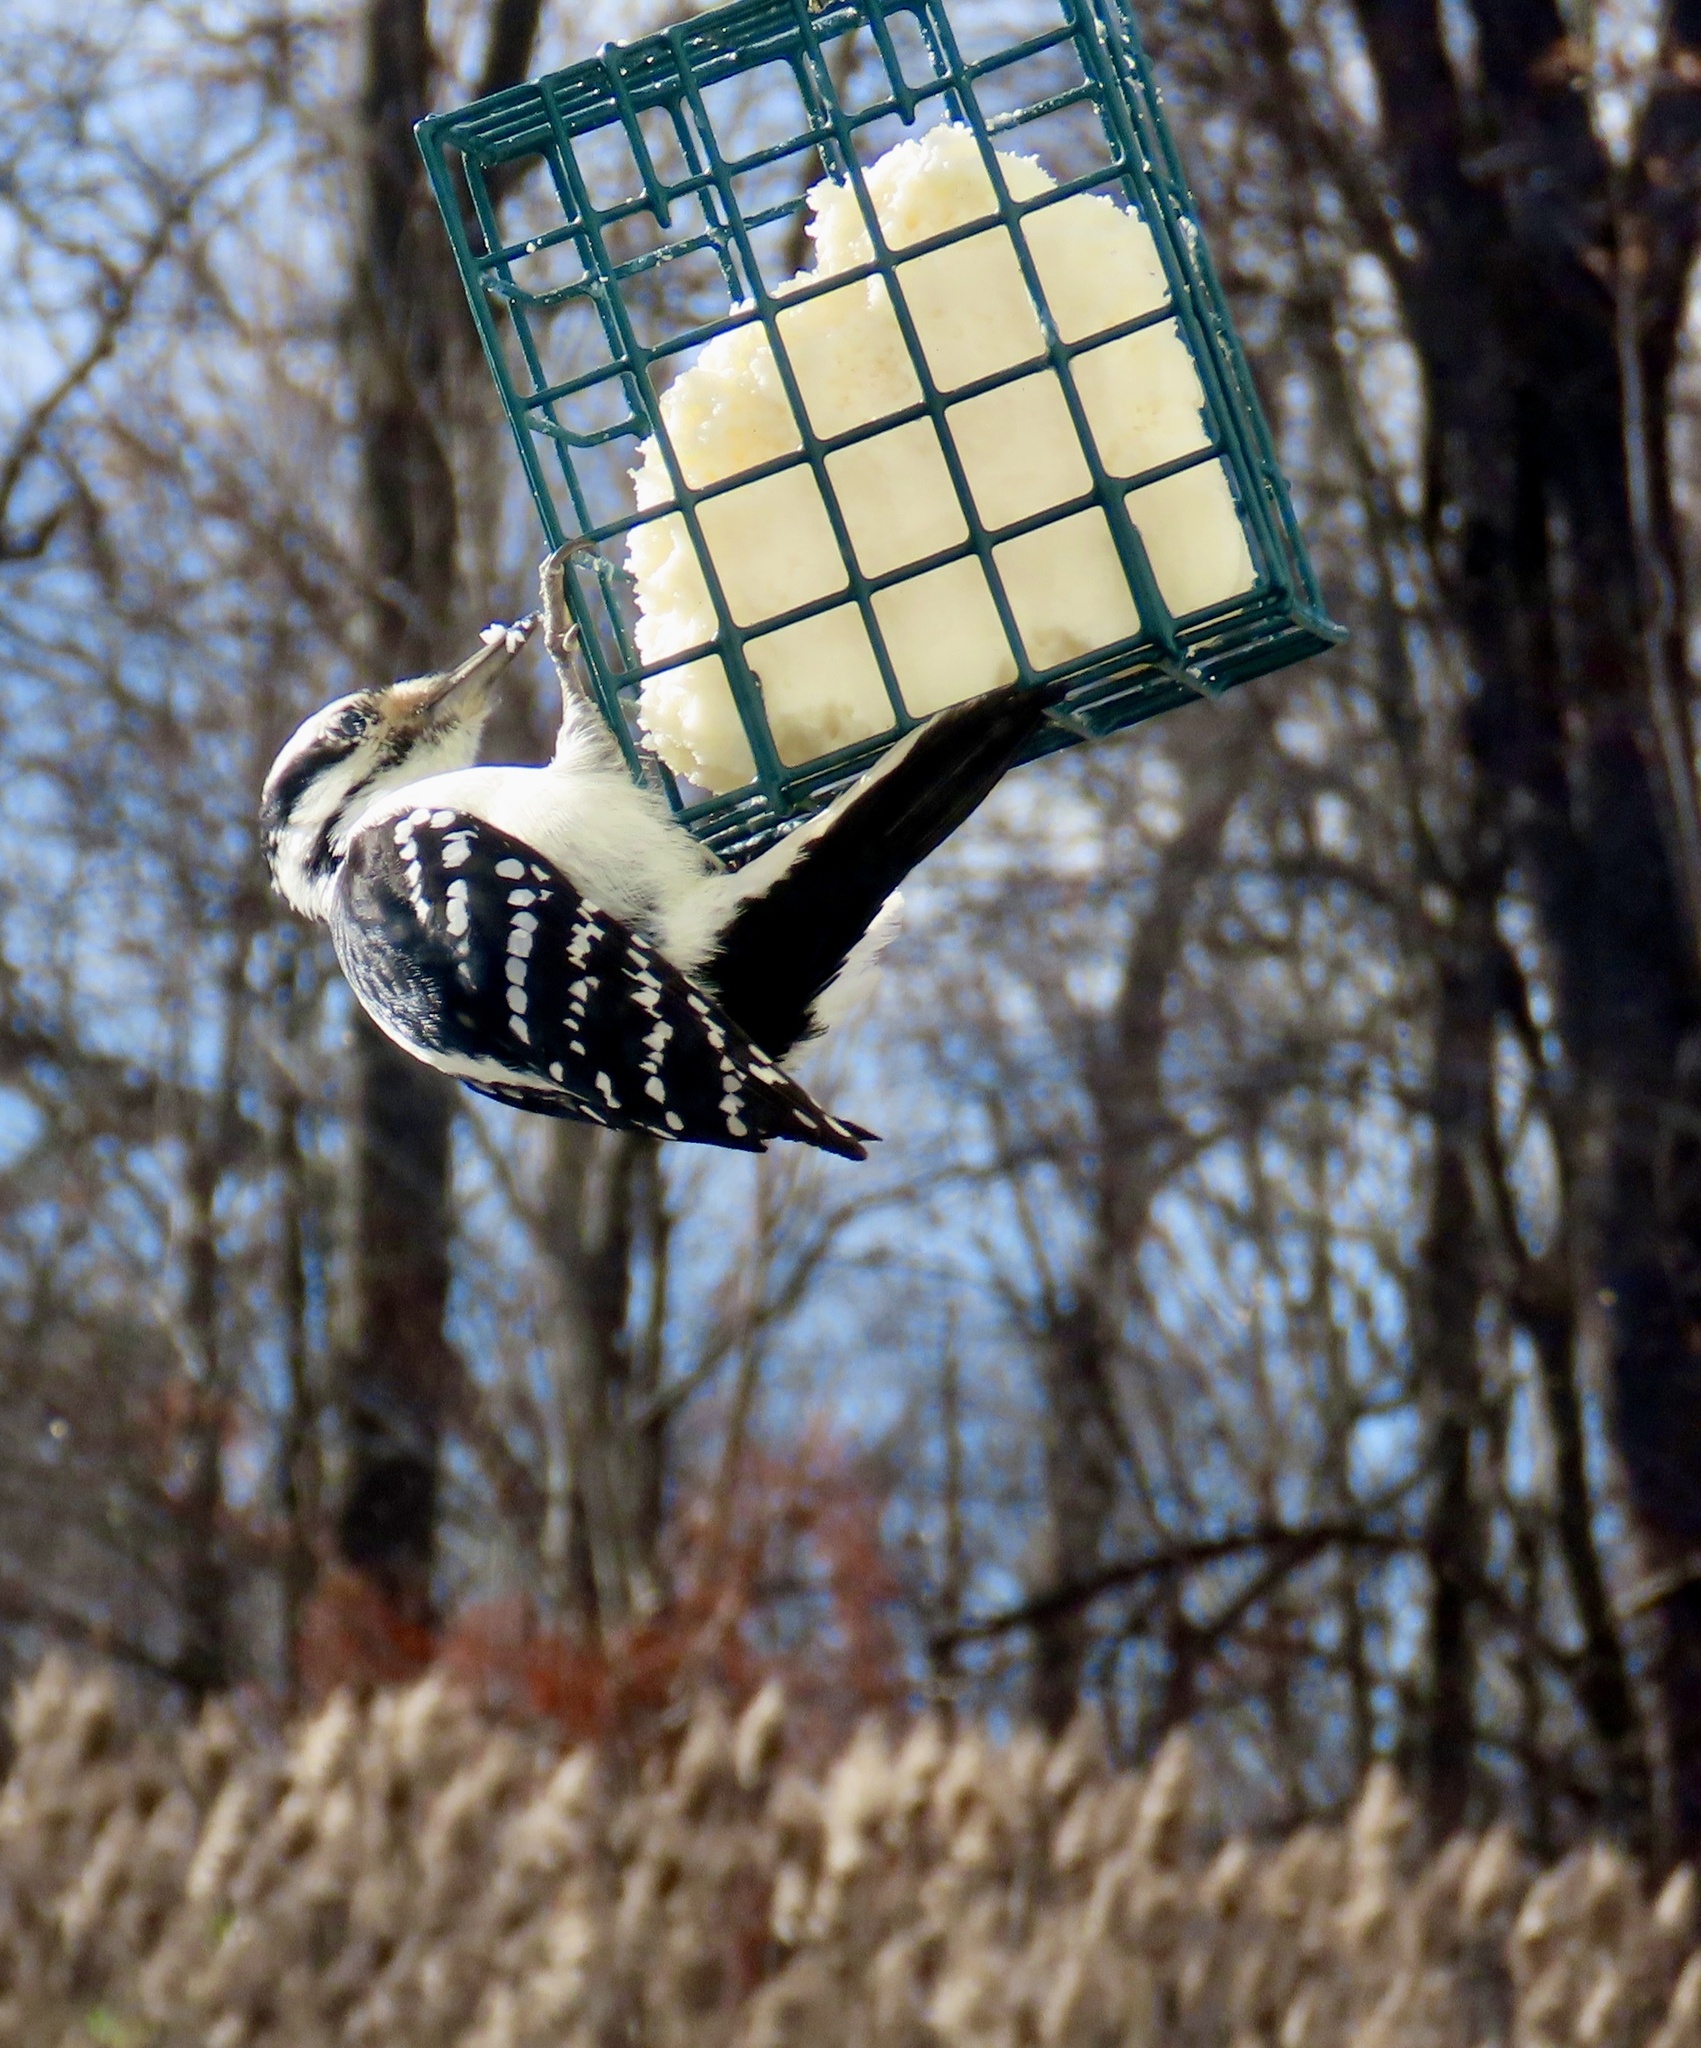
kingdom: Animalia
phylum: Chordata
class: Aves
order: Piciformes
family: Picidae
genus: Leuconotopicus
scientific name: Leuconotopicus villosus
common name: Hairy woodpecker
